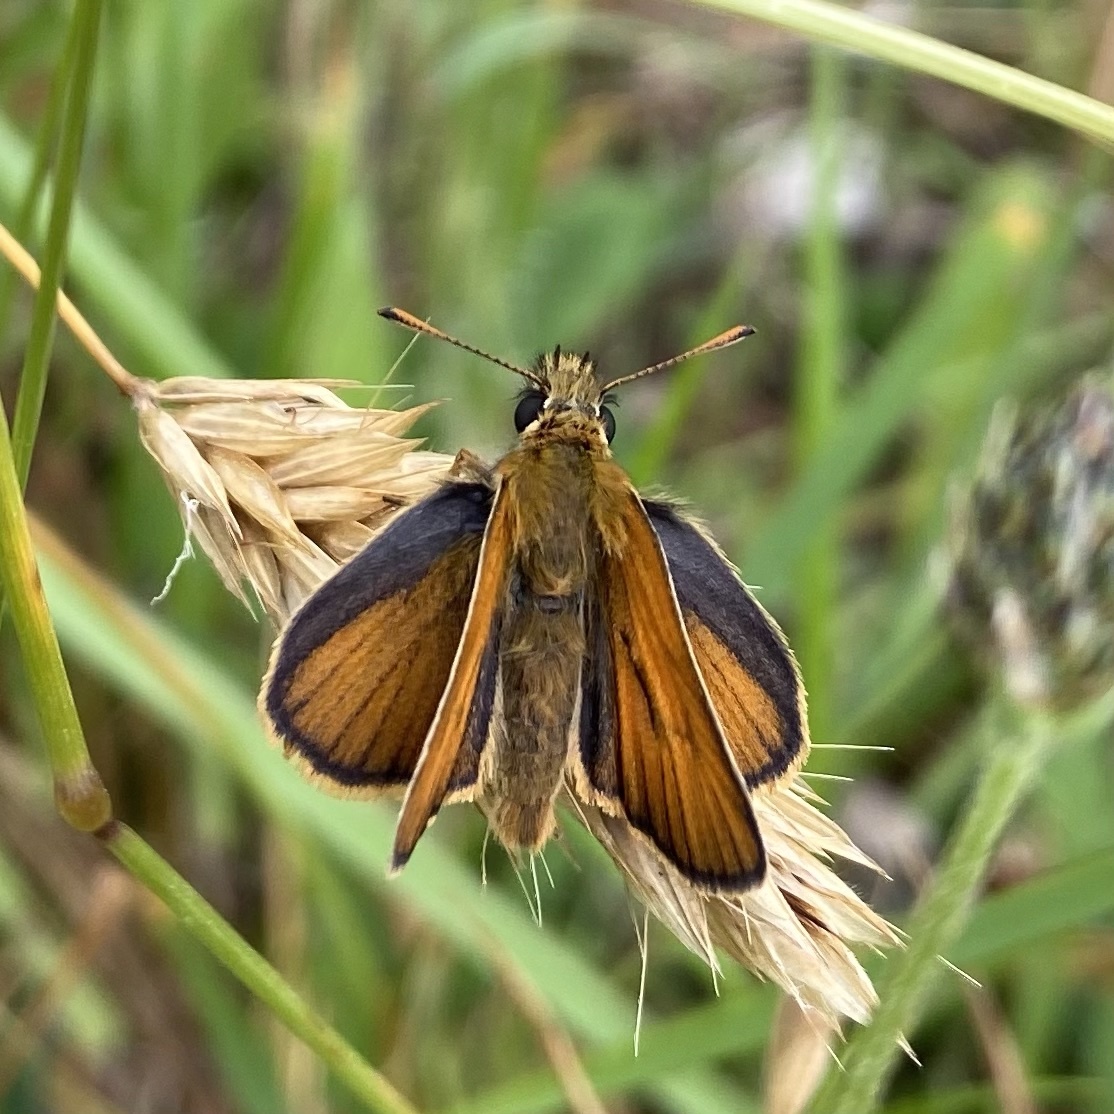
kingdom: Animalia
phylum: Arthropoda
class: Insecta
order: Lepidoptera
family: Hesperiidae
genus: Thymelicus
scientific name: Thymelicus sylvestris
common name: Small skipper
